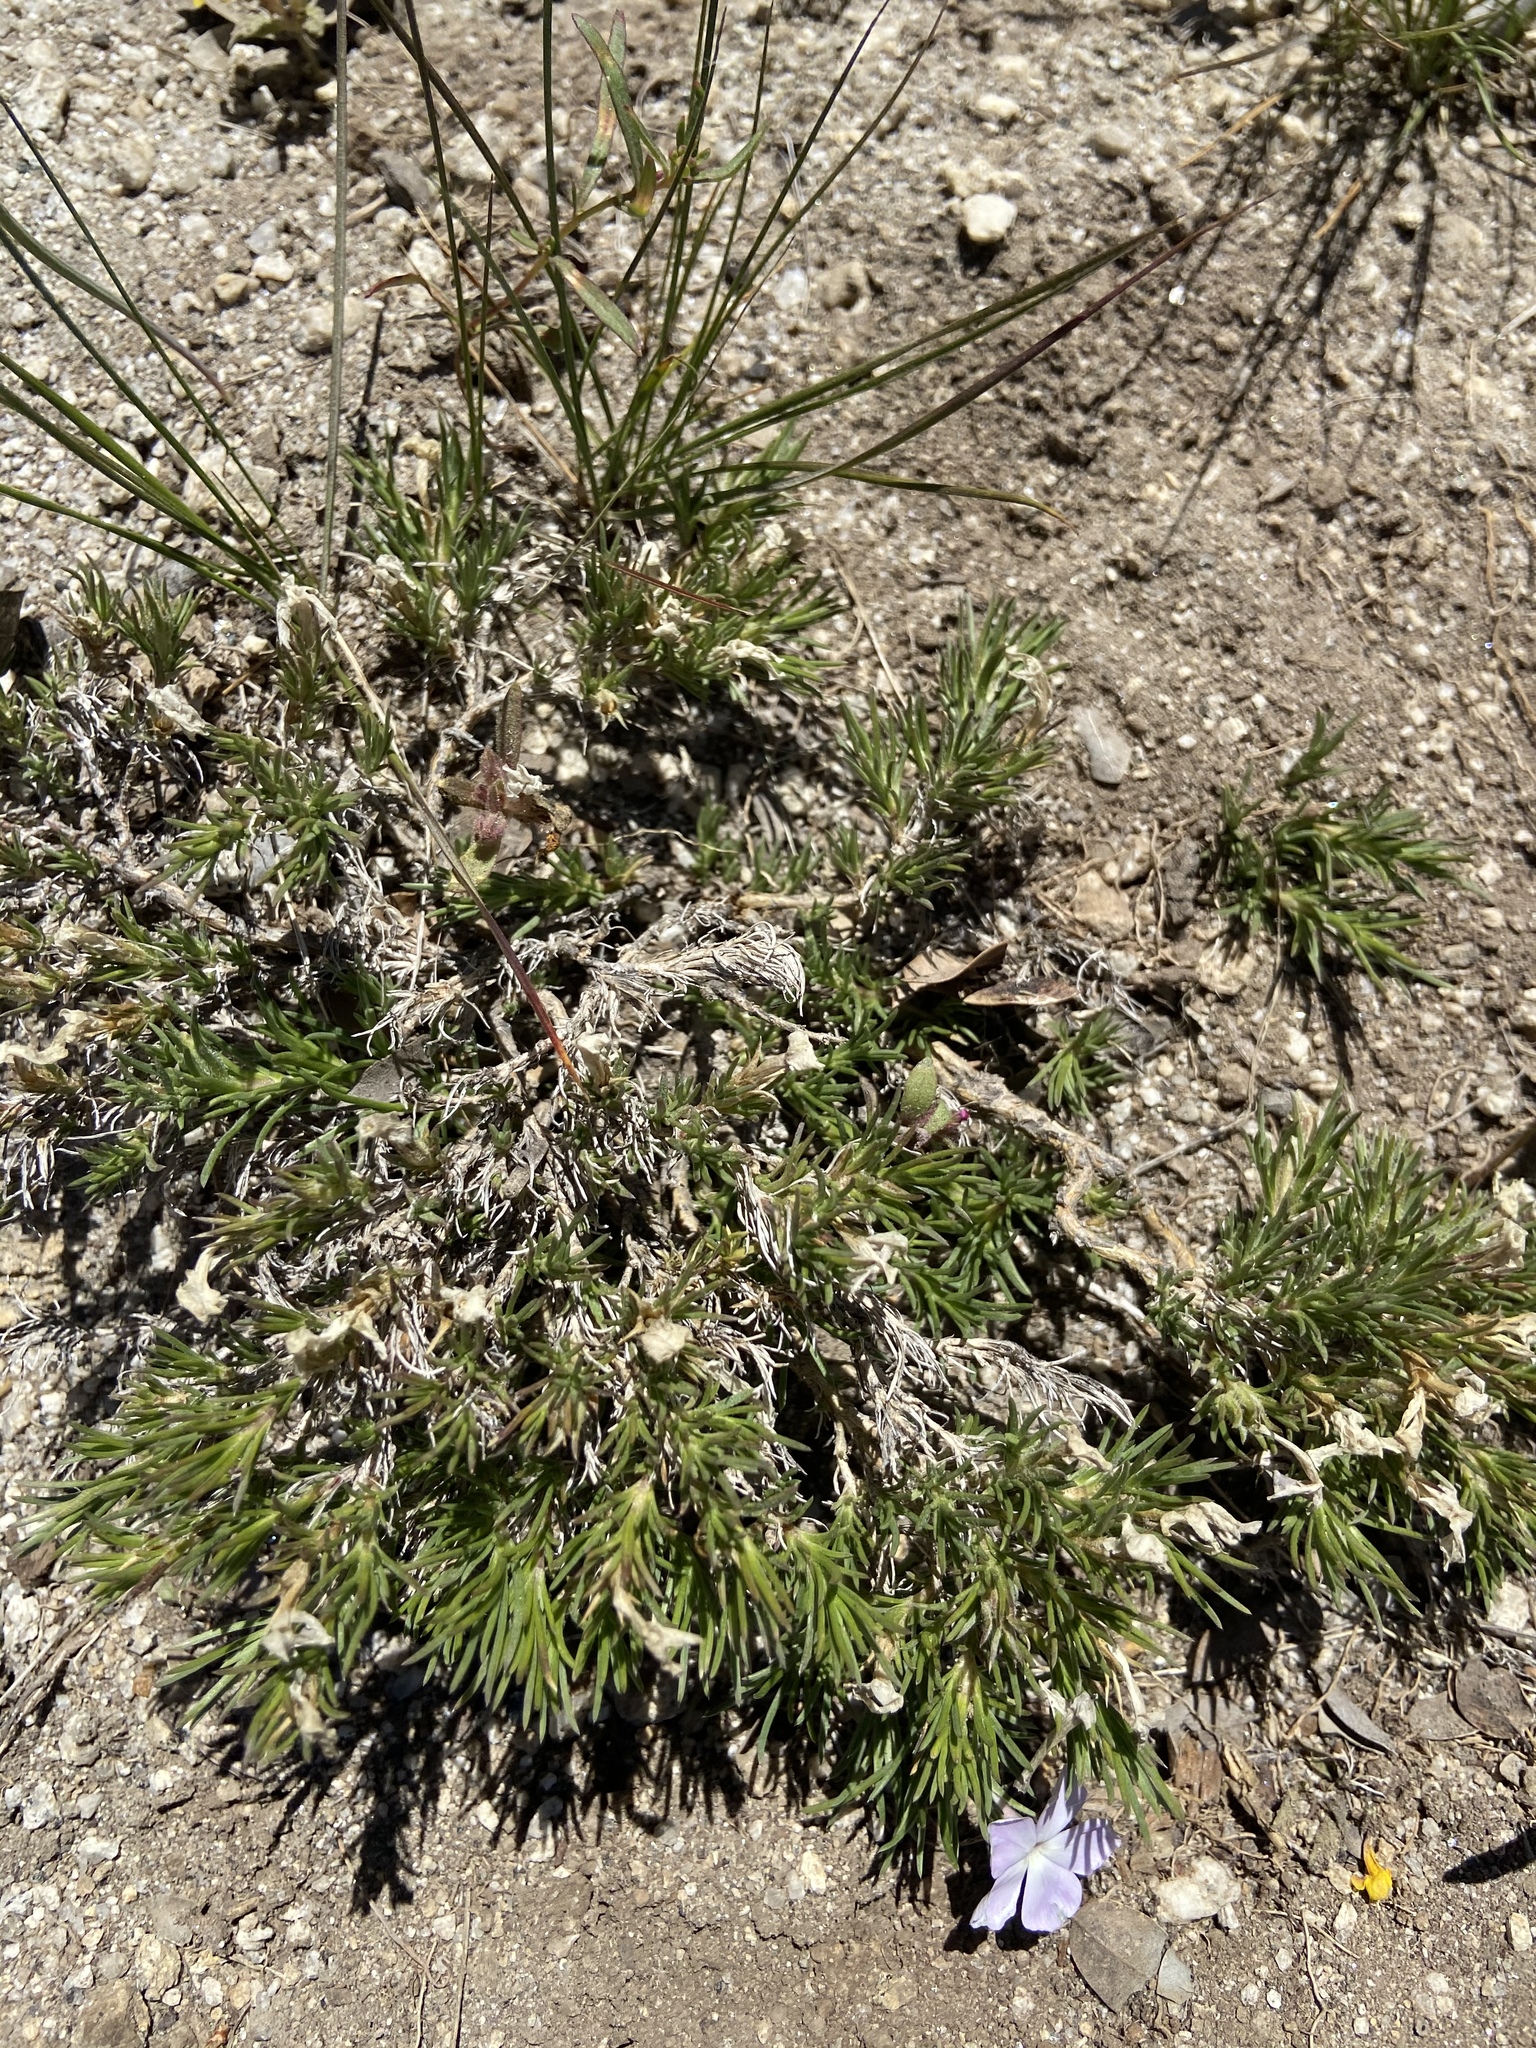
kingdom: Plantae
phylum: Tracheophyta
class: Magnoliopsida
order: Ericales
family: Polemoniaceae
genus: Phlox
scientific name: Phlox diffusa
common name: Mat phlox
